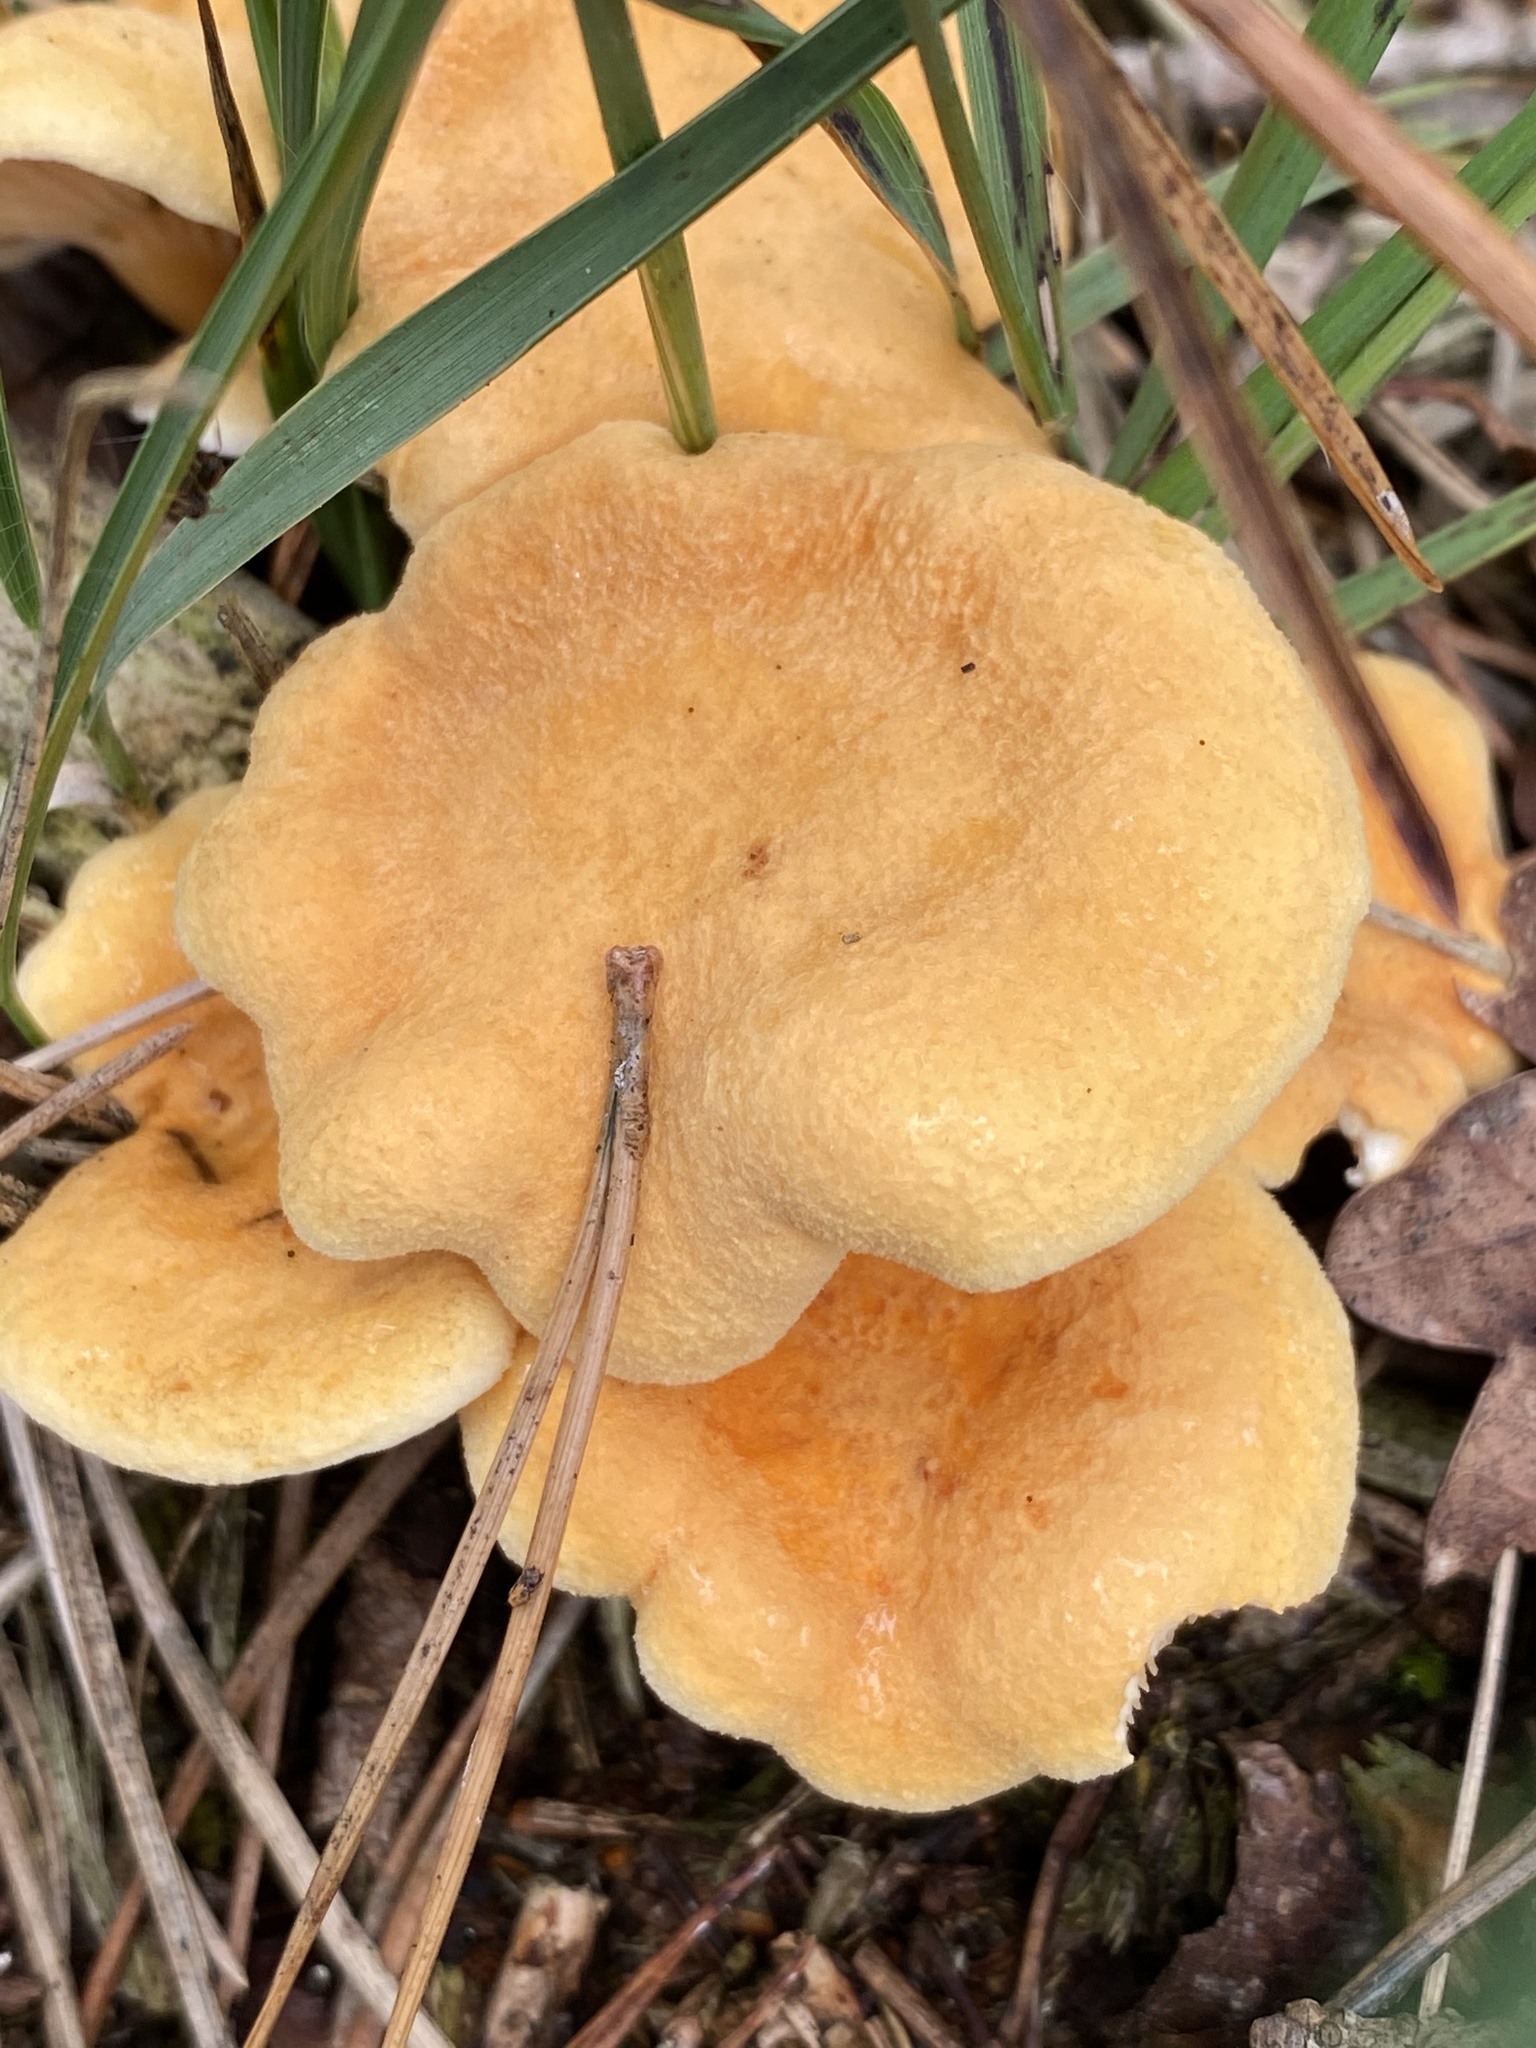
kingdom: Fungi
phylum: Basidiomycota
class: Agaricomycetes
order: Boletales
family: Hygrophoropsidaceae
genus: Hygrophoropsis
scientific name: Hygrophoropsis aurantiaca
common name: False chanterelle
